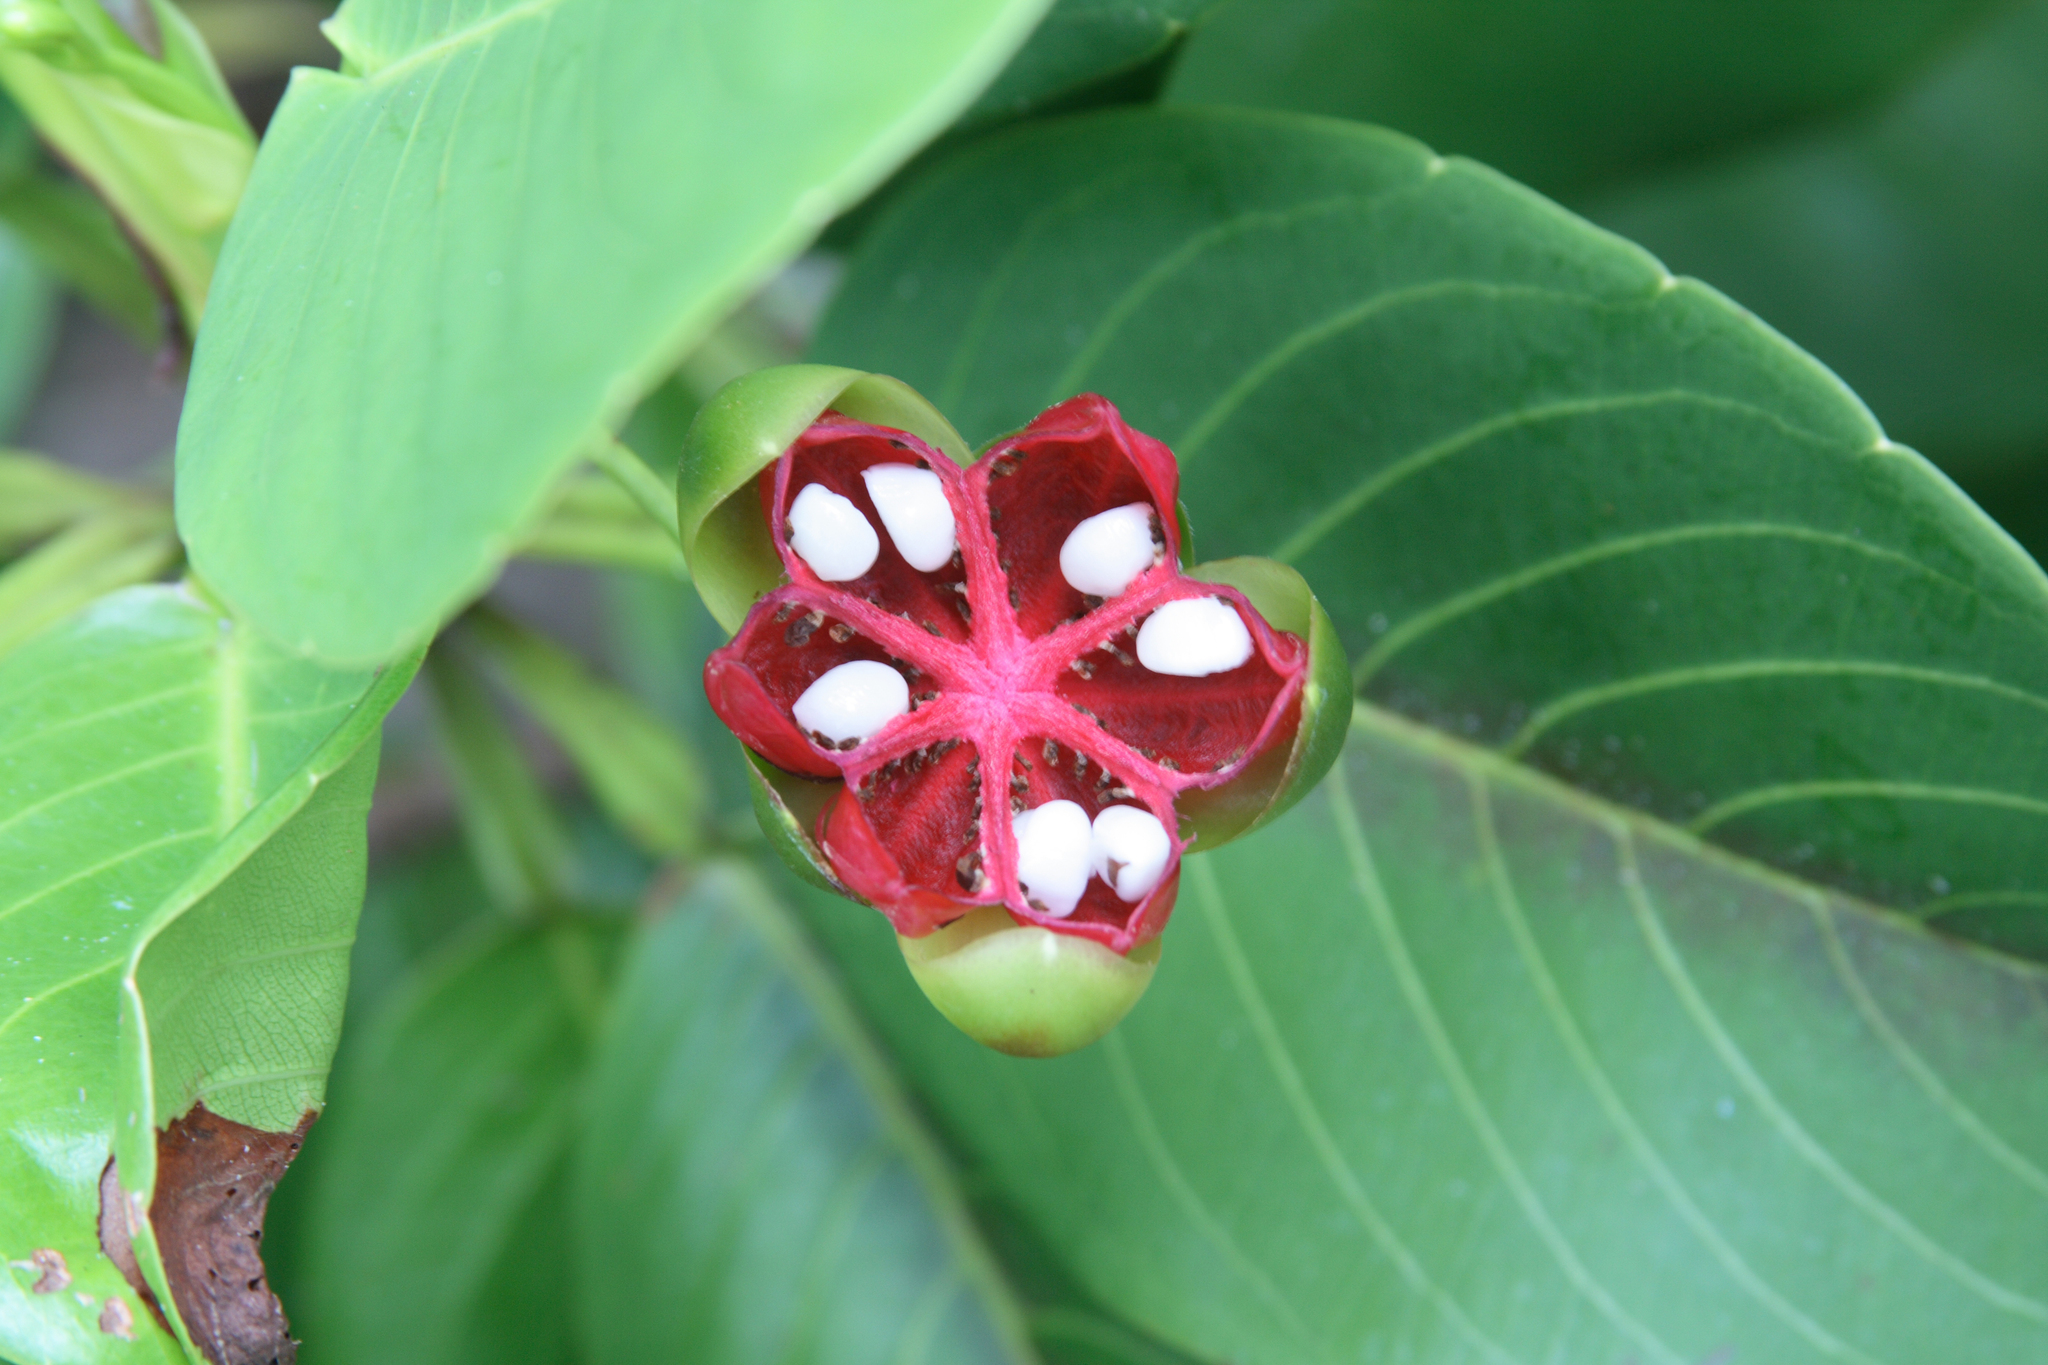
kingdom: Plantae
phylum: Tracheophyta
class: Magnoliopsida
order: Dilleniales
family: Dilleniaceae
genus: Dillenia
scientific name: Dillenia alata
